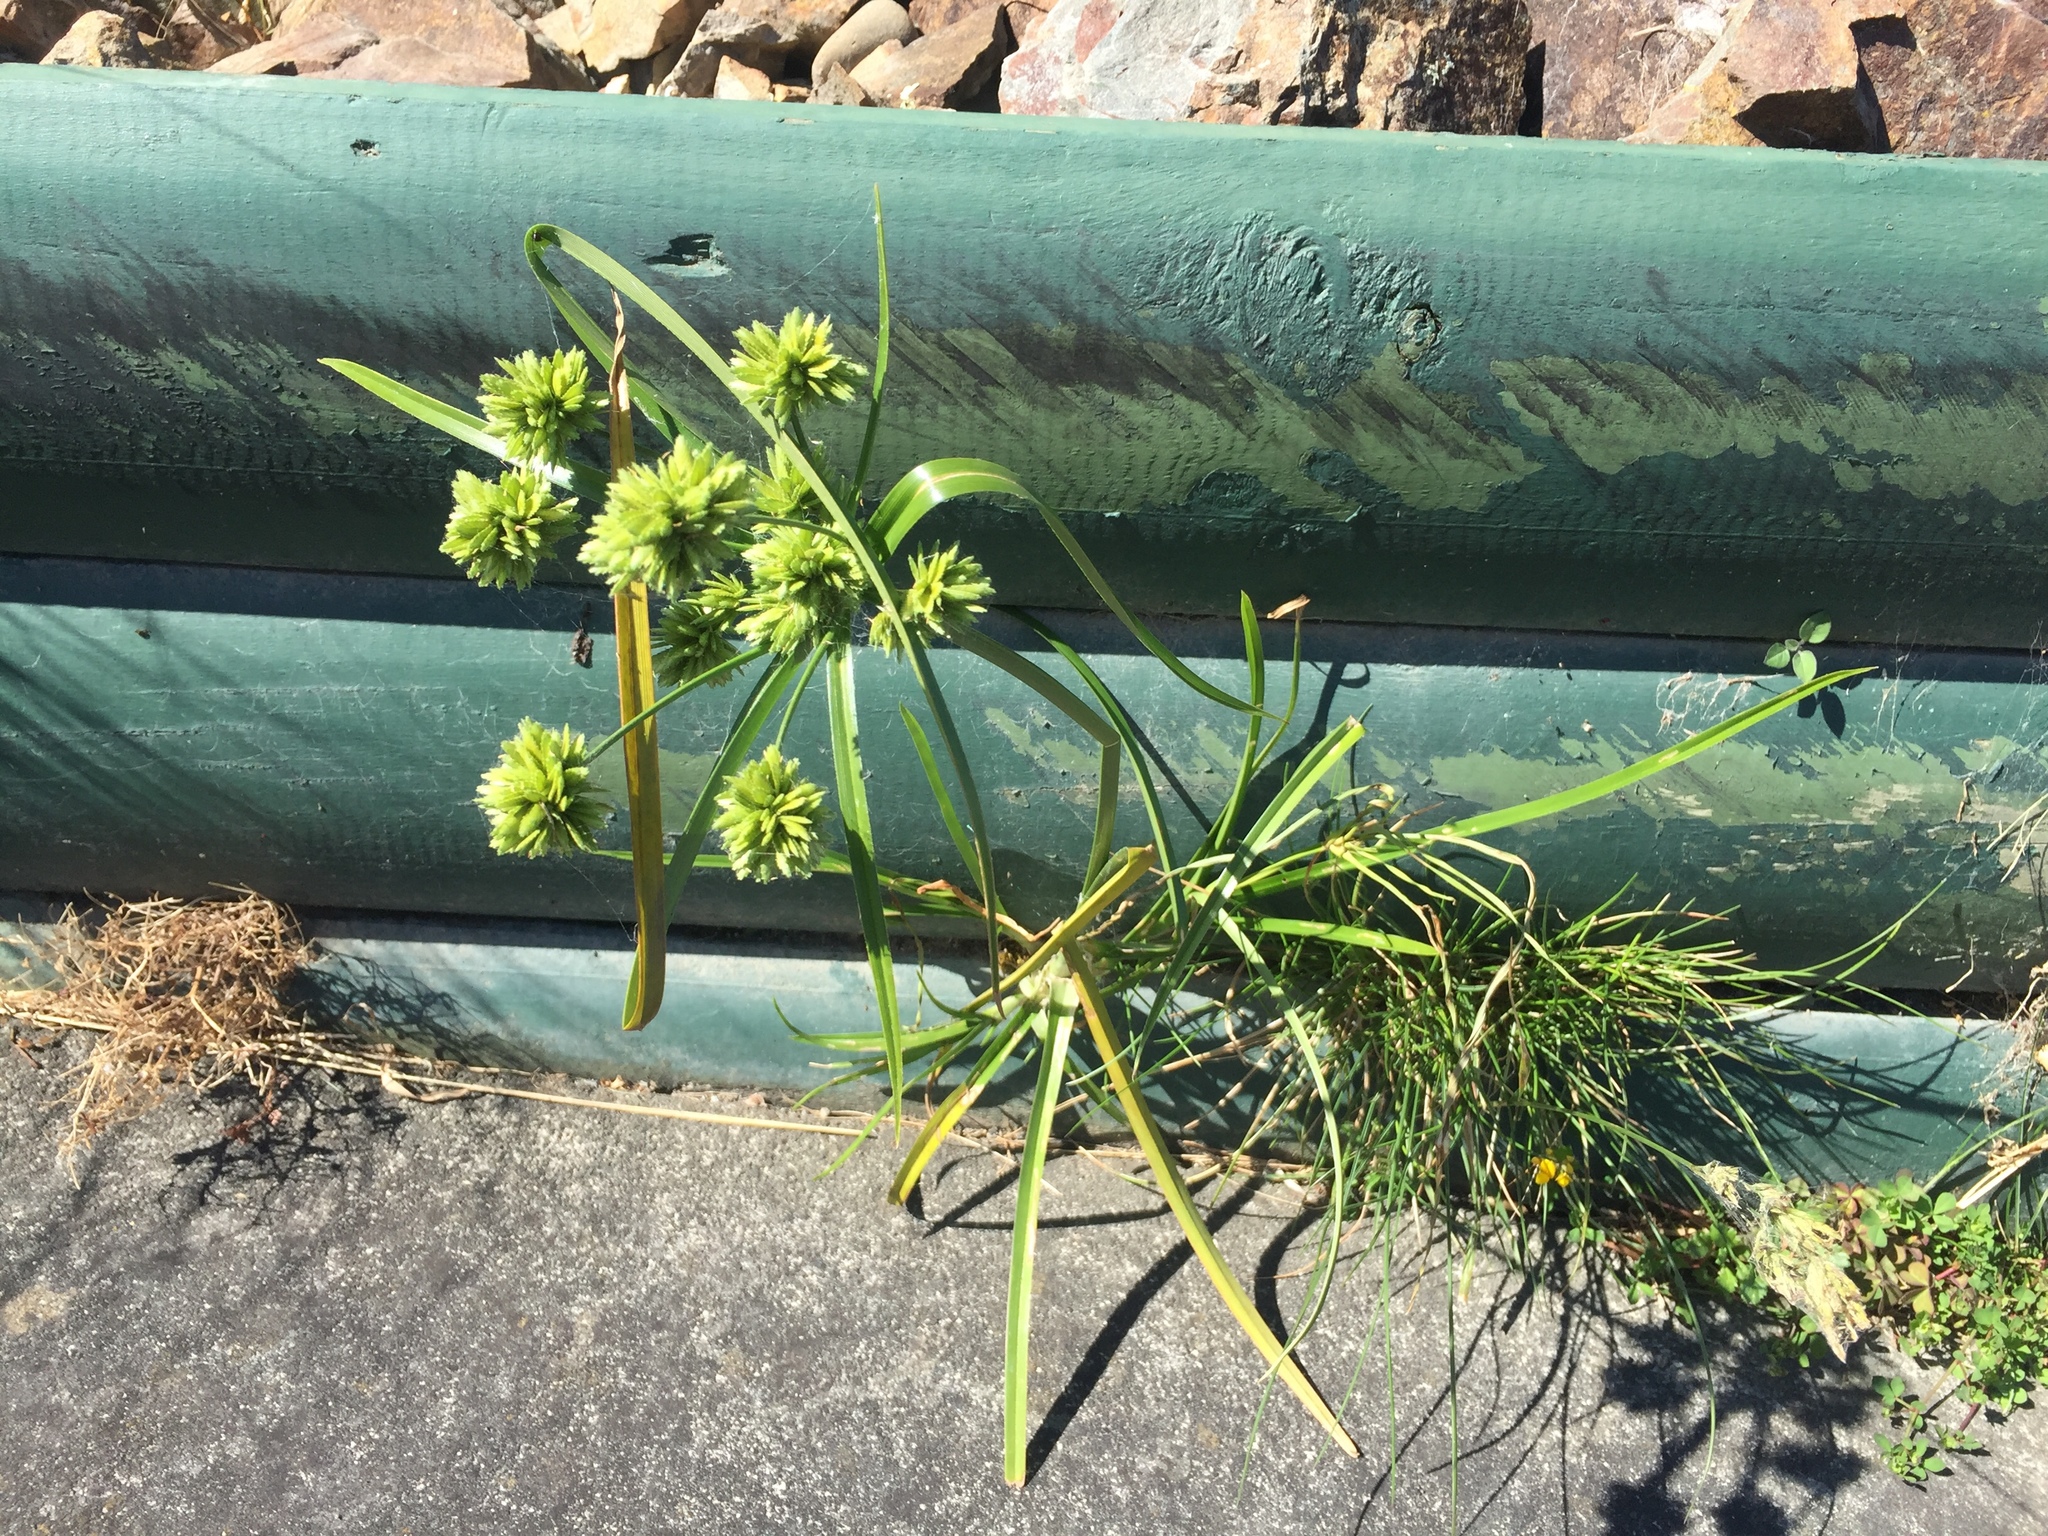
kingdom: Plantae
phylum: Tracheophyta
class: Liliopsida
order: Poales
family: Cyperaceae
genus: Cyperus
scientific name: Cyperus eragrostis
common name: Tall flatsedge
